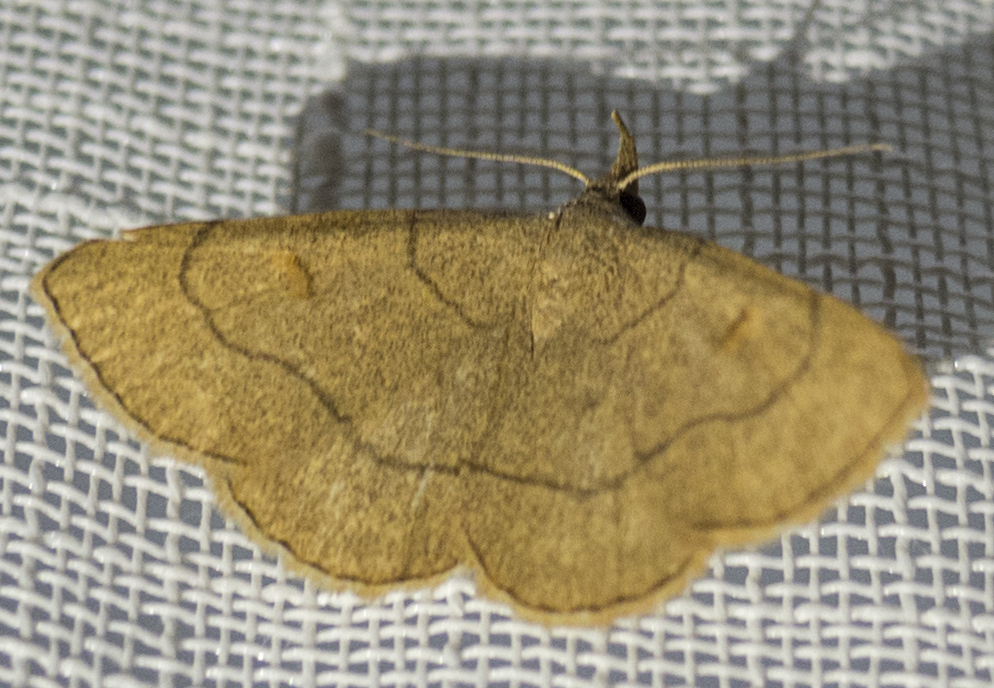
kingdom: Animalia
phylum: Arthropoda
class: Insecta
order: Lepidoptera
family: Erebidae
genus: Paracolax
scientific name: Paracolax tristalis
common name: Clay fan-foot
